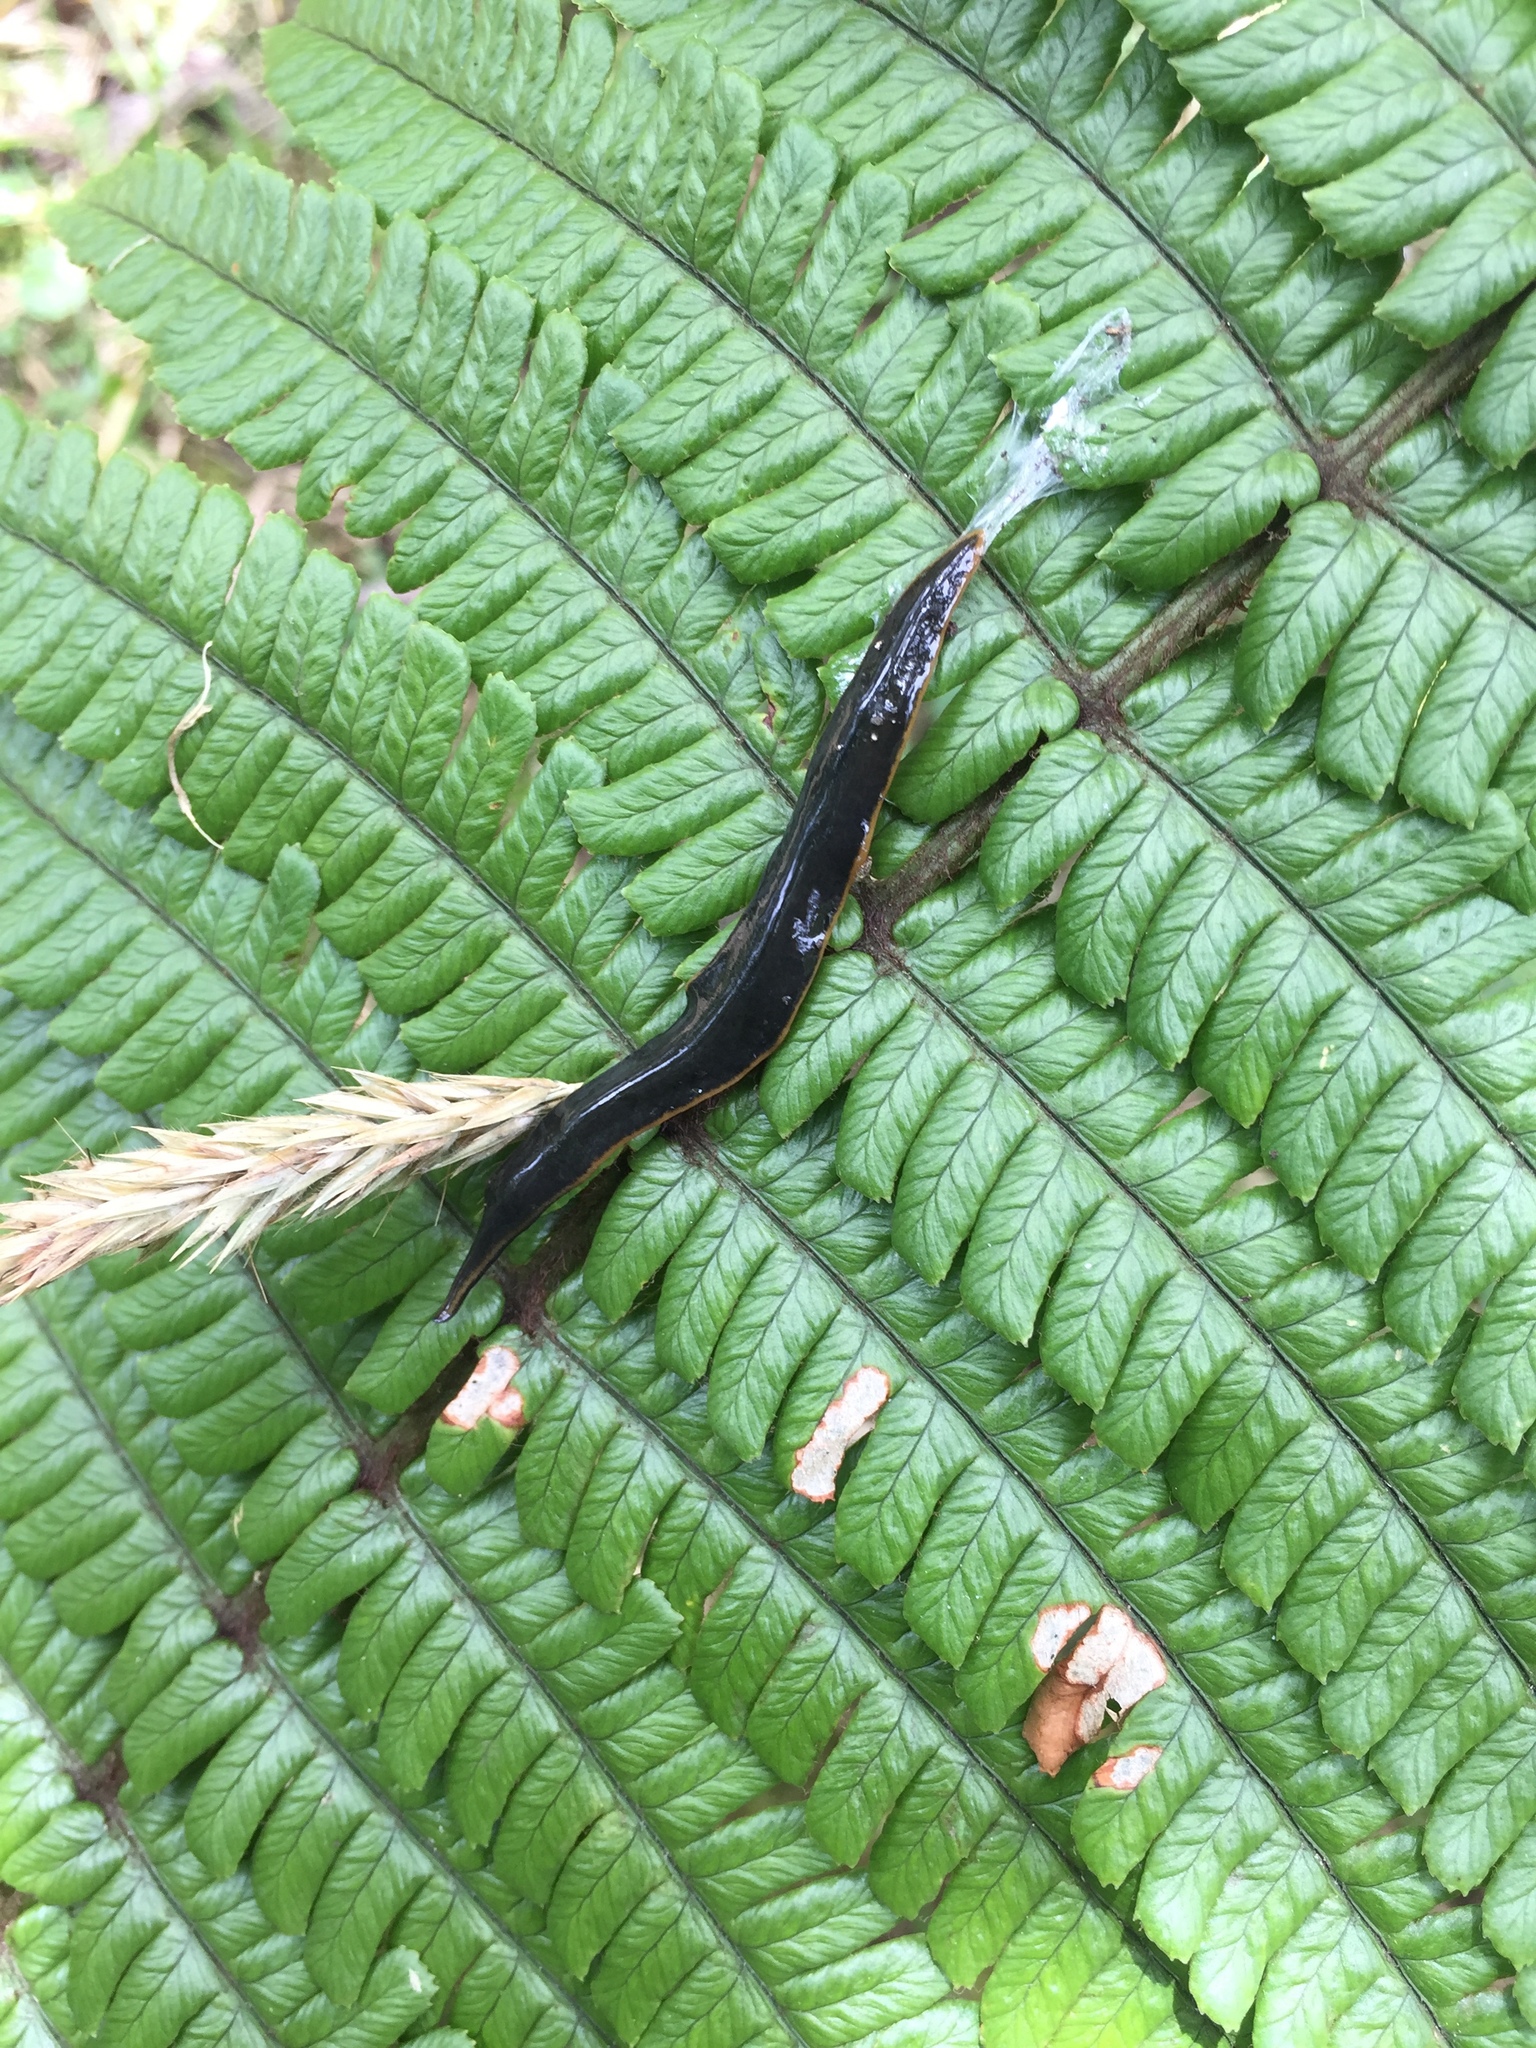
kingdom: Animalia
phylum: Platyhelminthes
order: Tricladida
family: Geoplanidae
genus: Amaga
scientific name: Amaga becki
